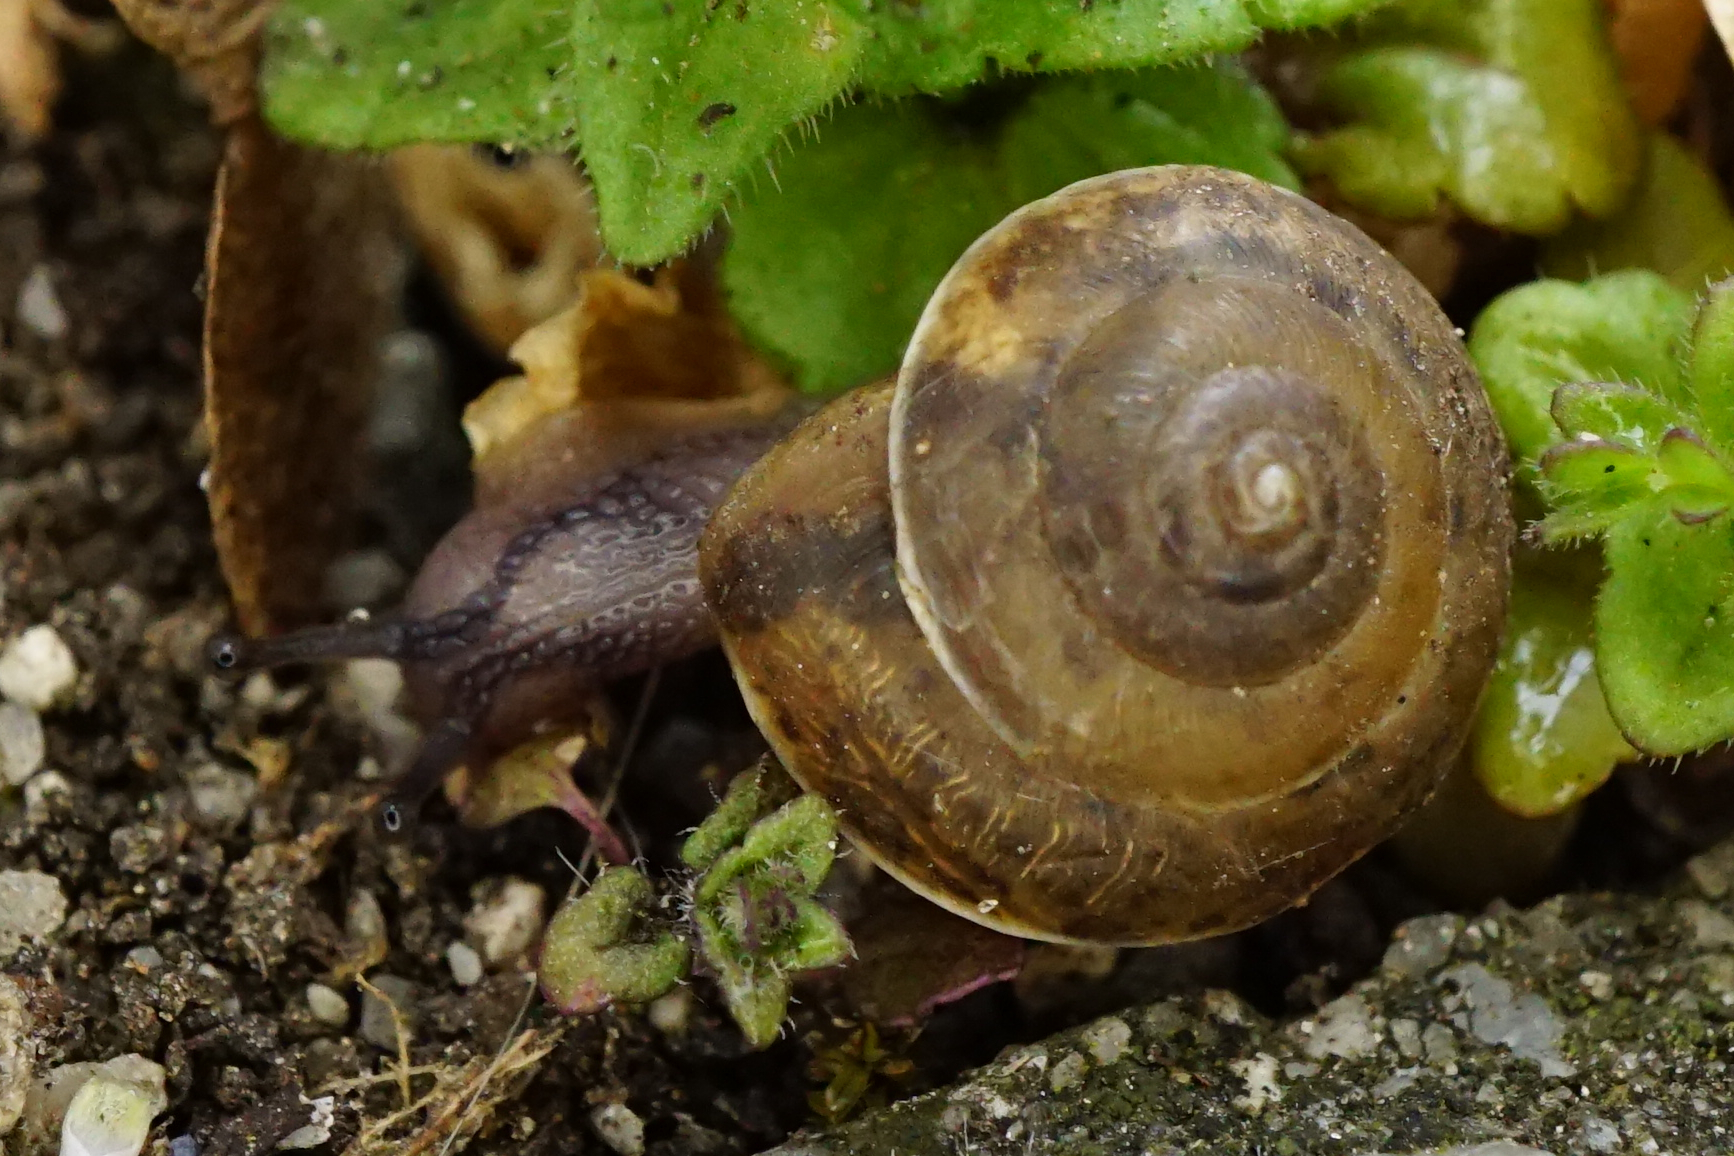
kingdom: Animalia
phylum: Mollusca
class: Gastropoda
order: Stylommatophora
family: Hygromiidae
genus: Hygromia
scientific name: Hygromia cinctella
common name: Girdled snail
